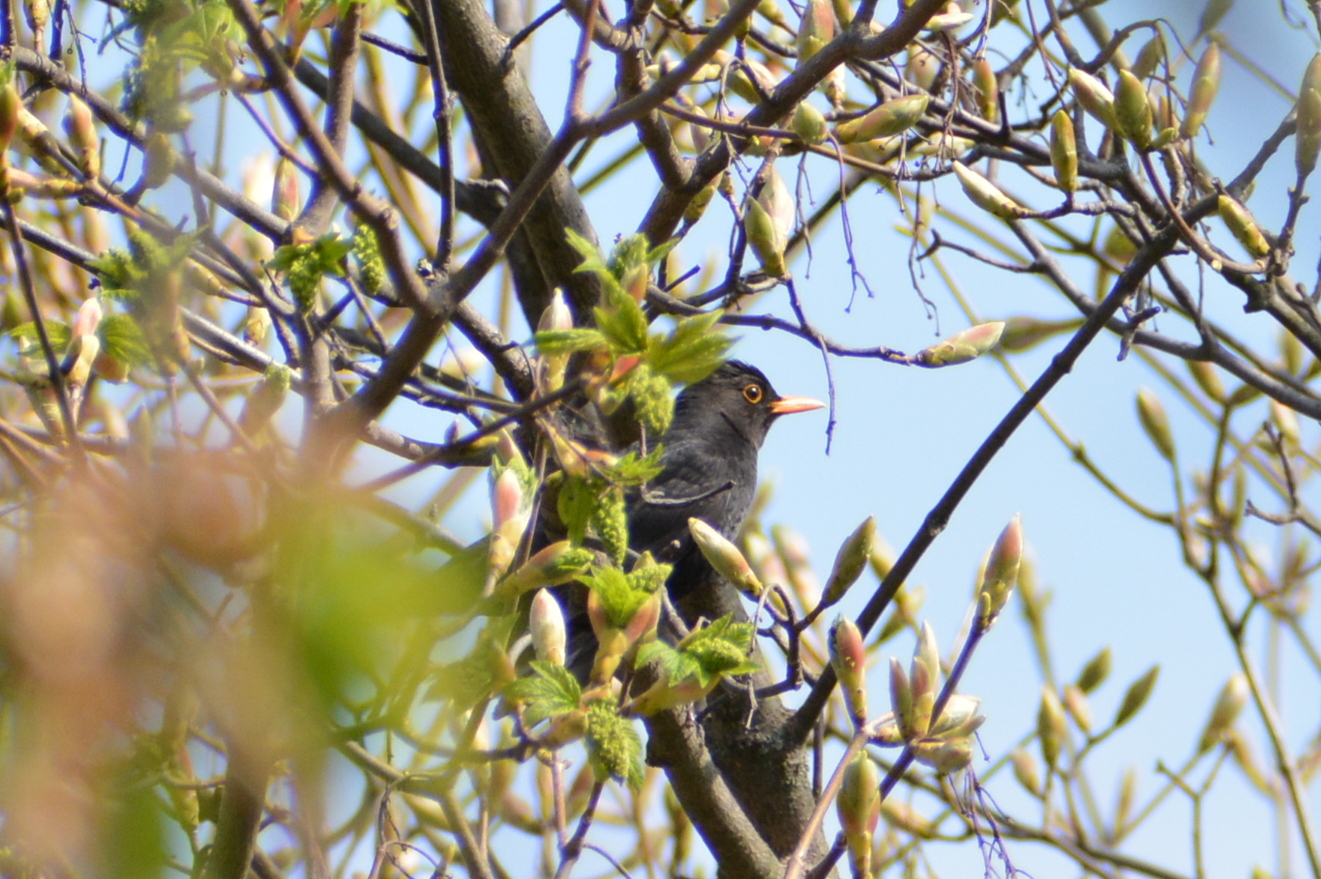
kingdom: Animalia
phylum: Chordata
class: Aves
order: Passeriformes
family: Turdidae
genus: Turdus
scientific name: Turdus merula
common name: Common blackbird
